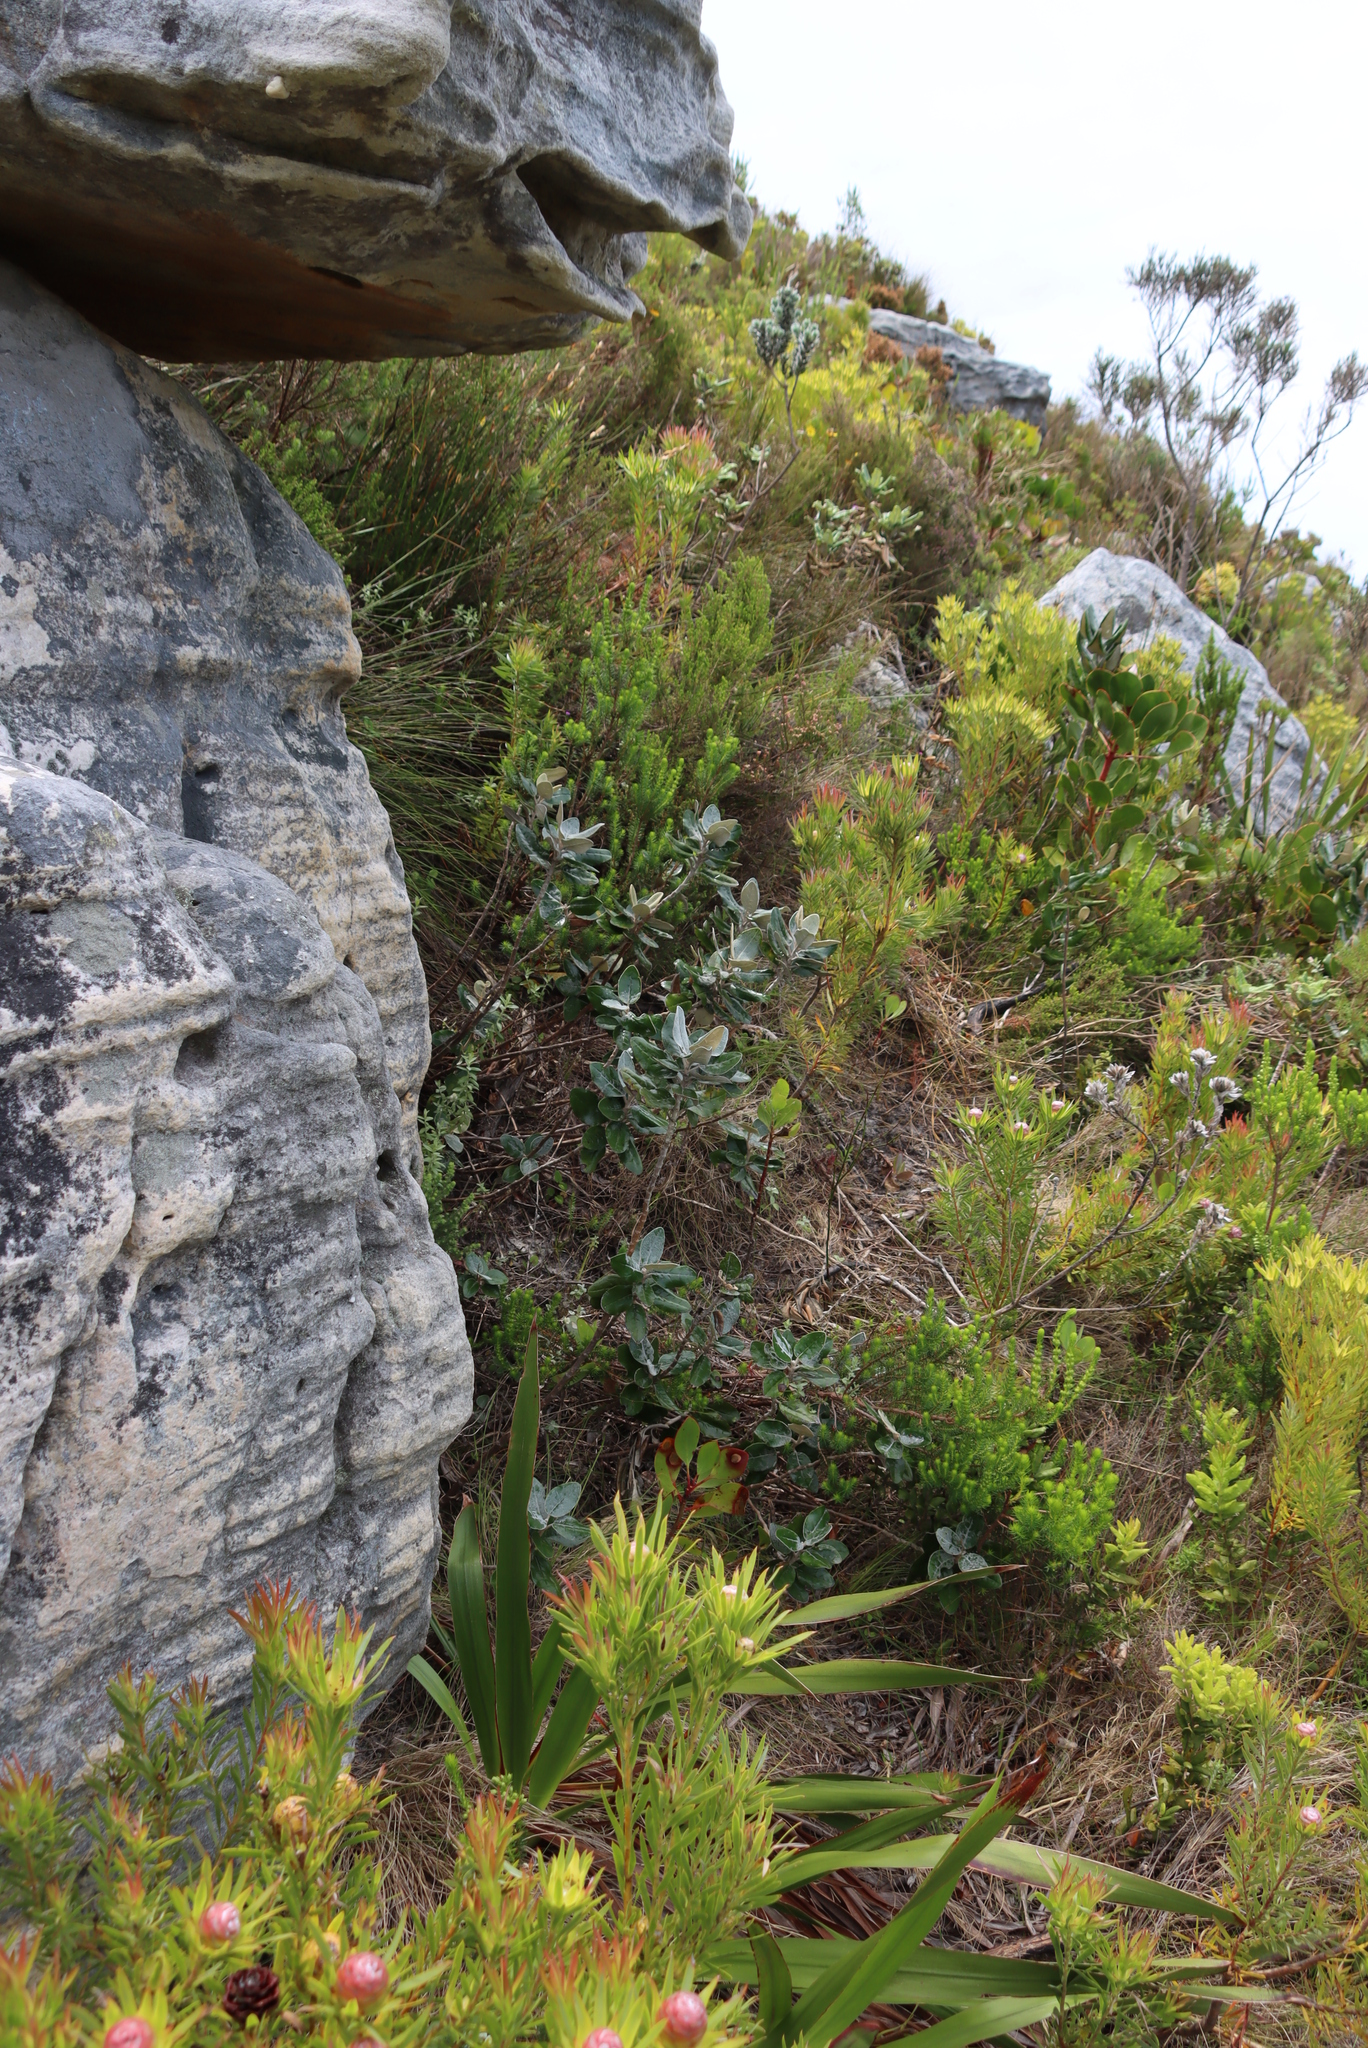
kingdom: Plantae
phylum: Tracheophyta
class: Magnoliopsida
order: Asterales
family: Asteraceae
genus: Capelio
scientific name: Capelio tabularis
